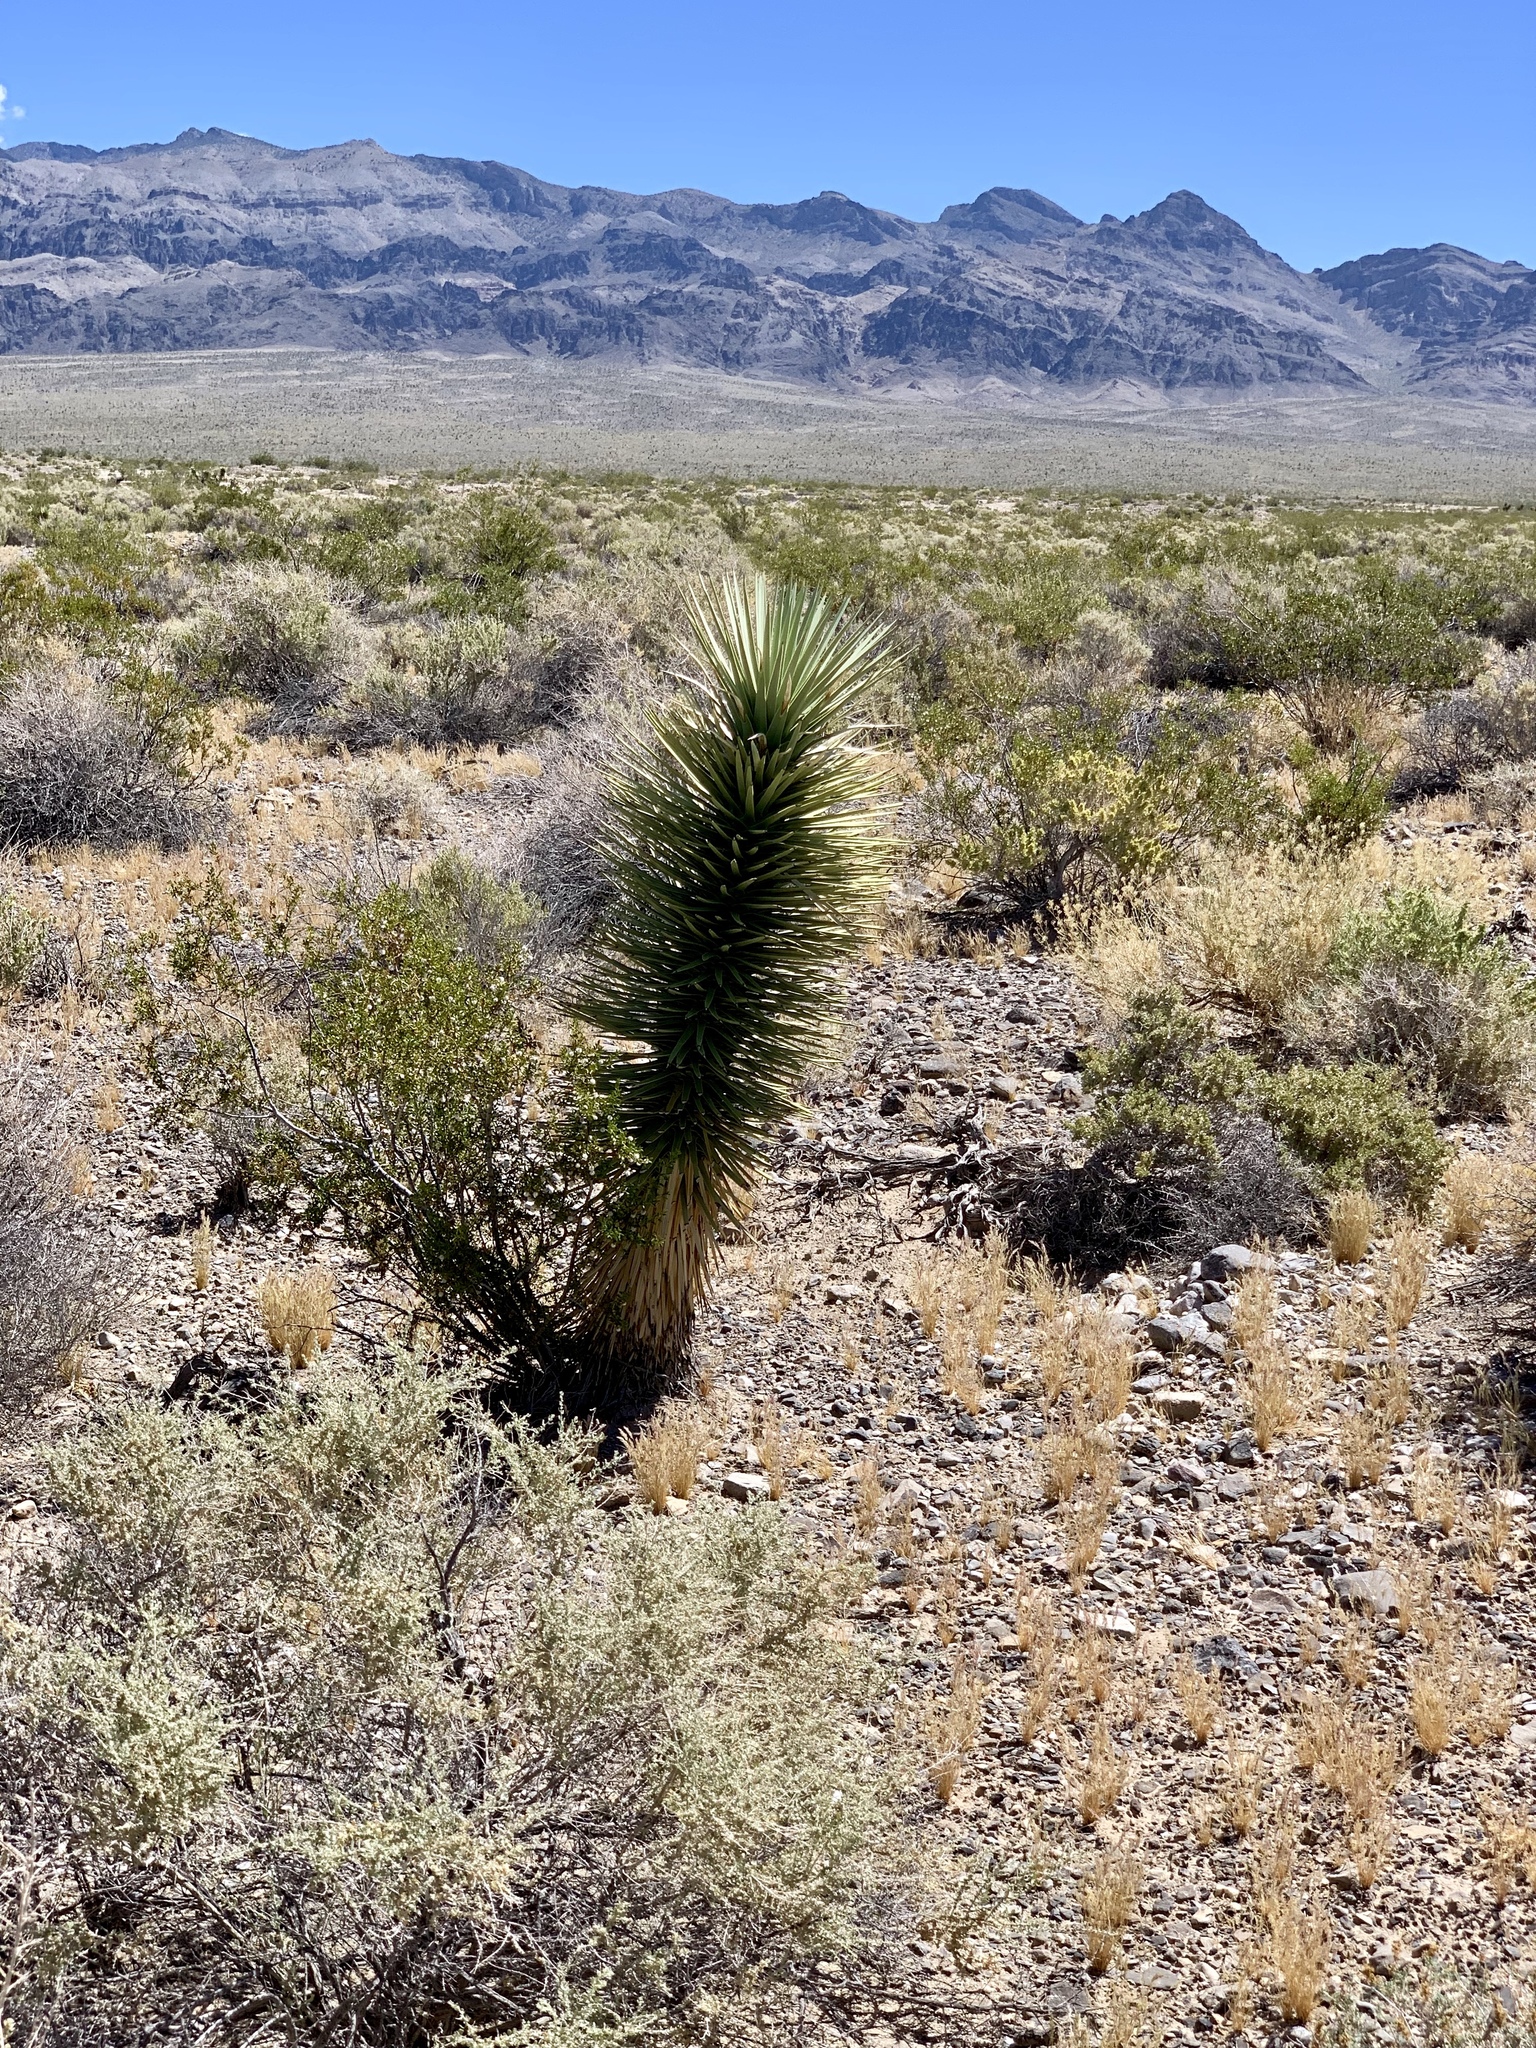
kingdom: Plantae
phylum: Tracheophyta
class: Liliopsida
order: Asparagales
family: Asparagaceae
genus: Yucca
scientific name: Yucca brevifolia
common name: Joshua tree
